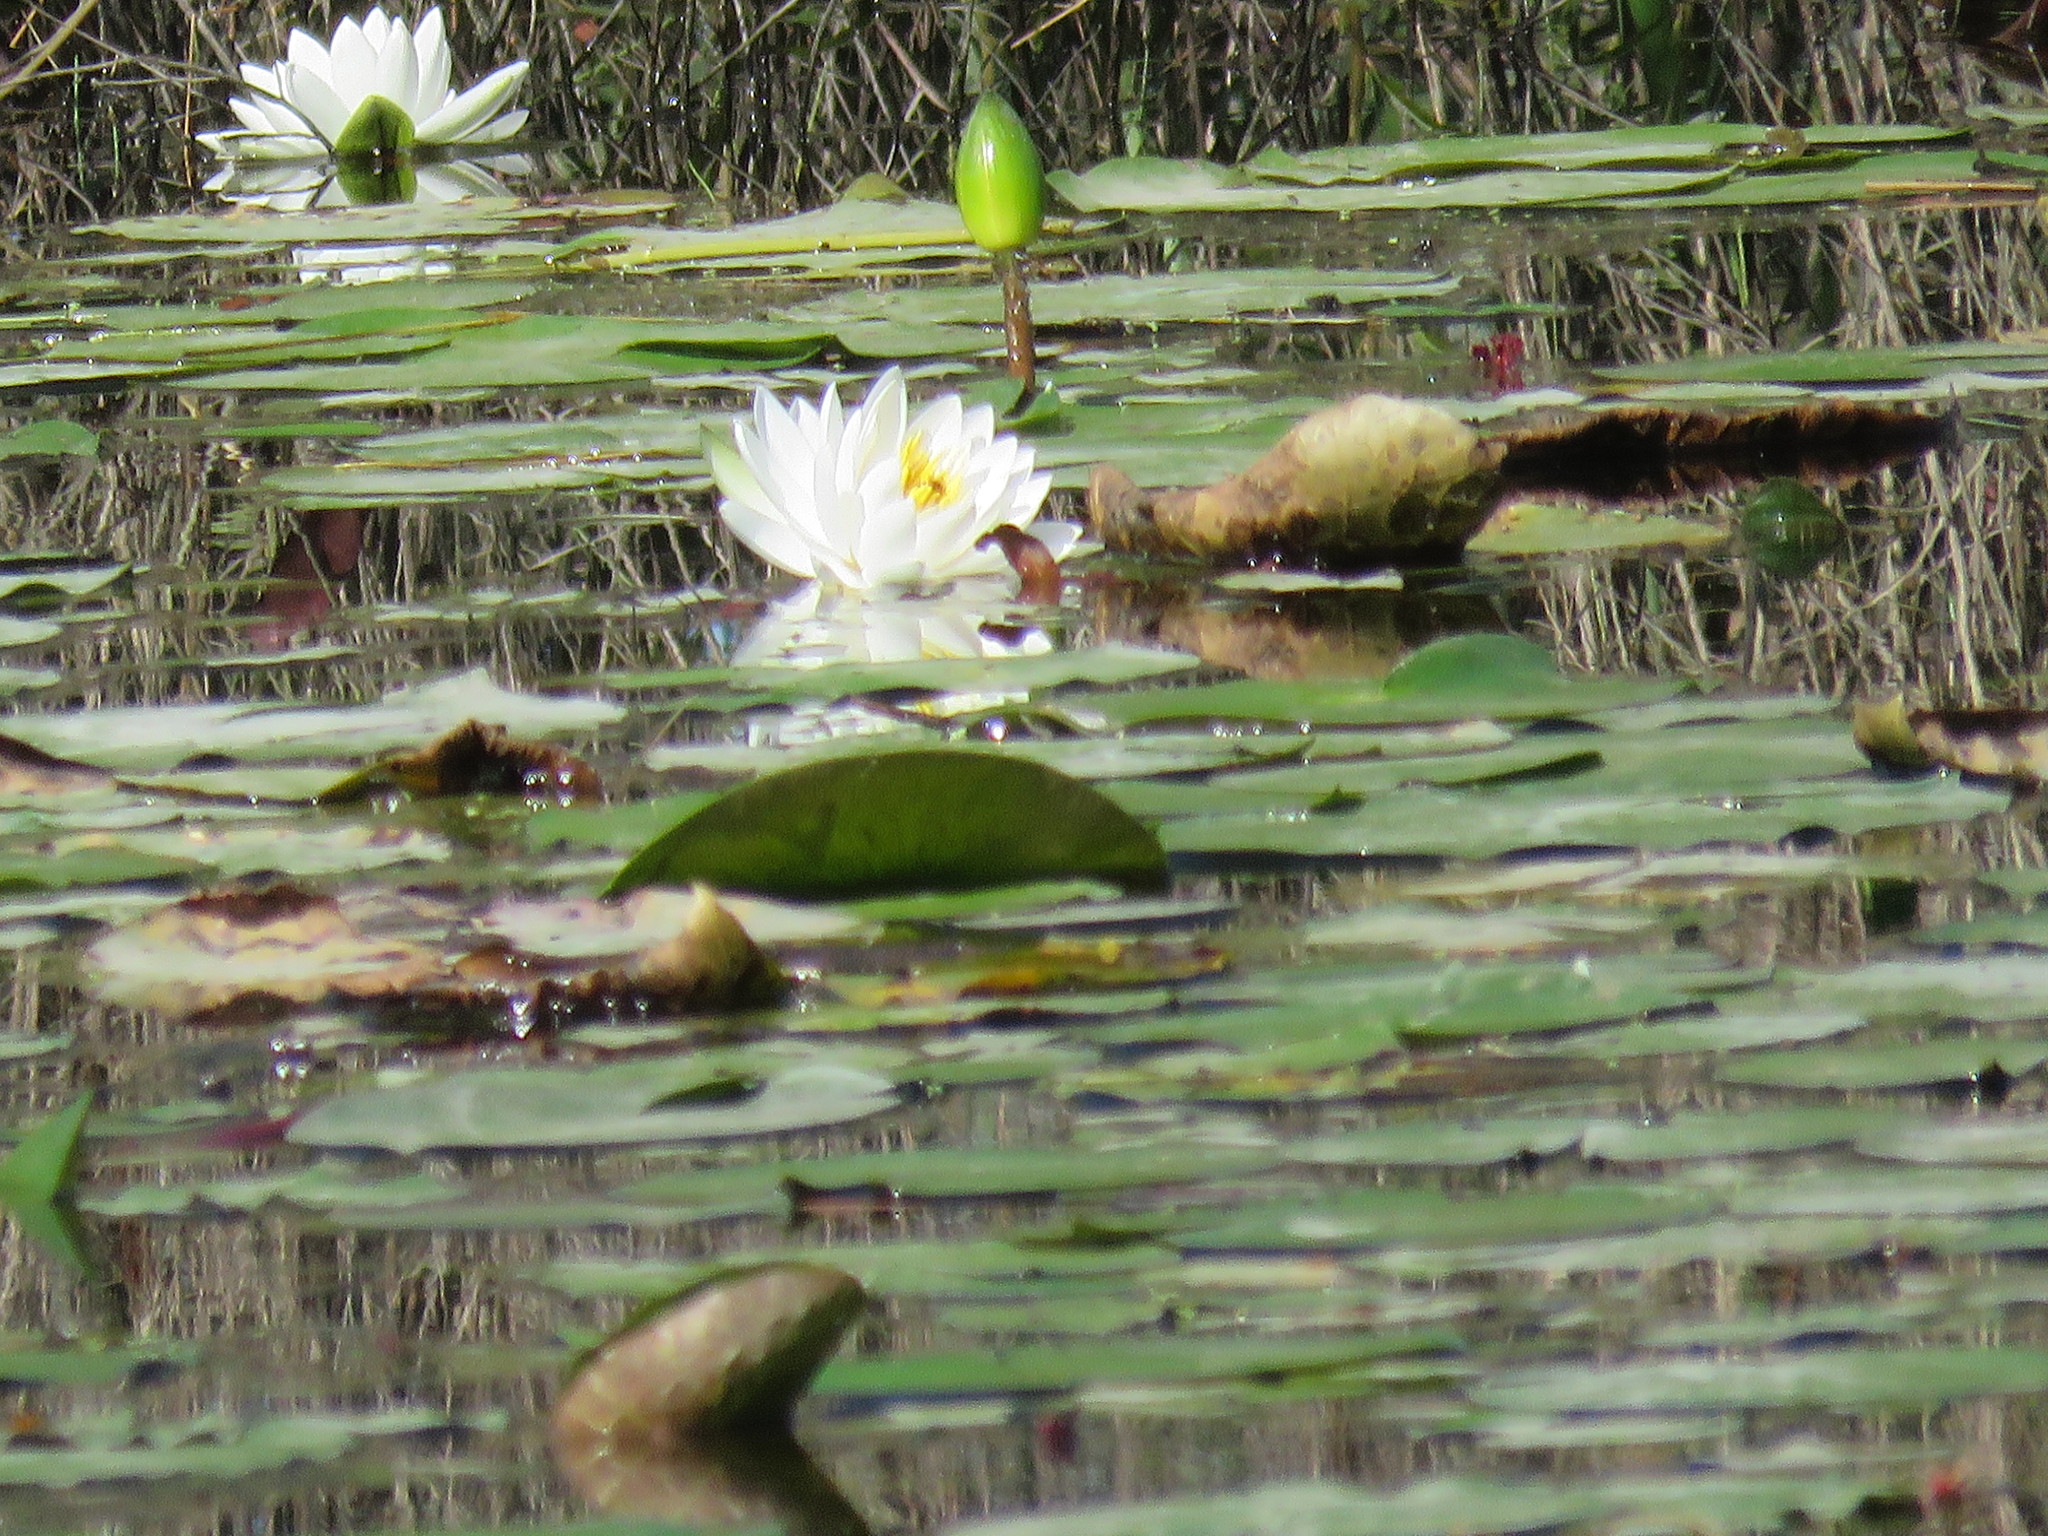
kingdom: Plantae
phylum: Tracheophyta
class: Magnoliopsida
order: Nymphaeales
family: Nymphaeaceae
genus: Nymphaea
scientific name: Nymphaea odorata
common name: Fragrant water-lily
